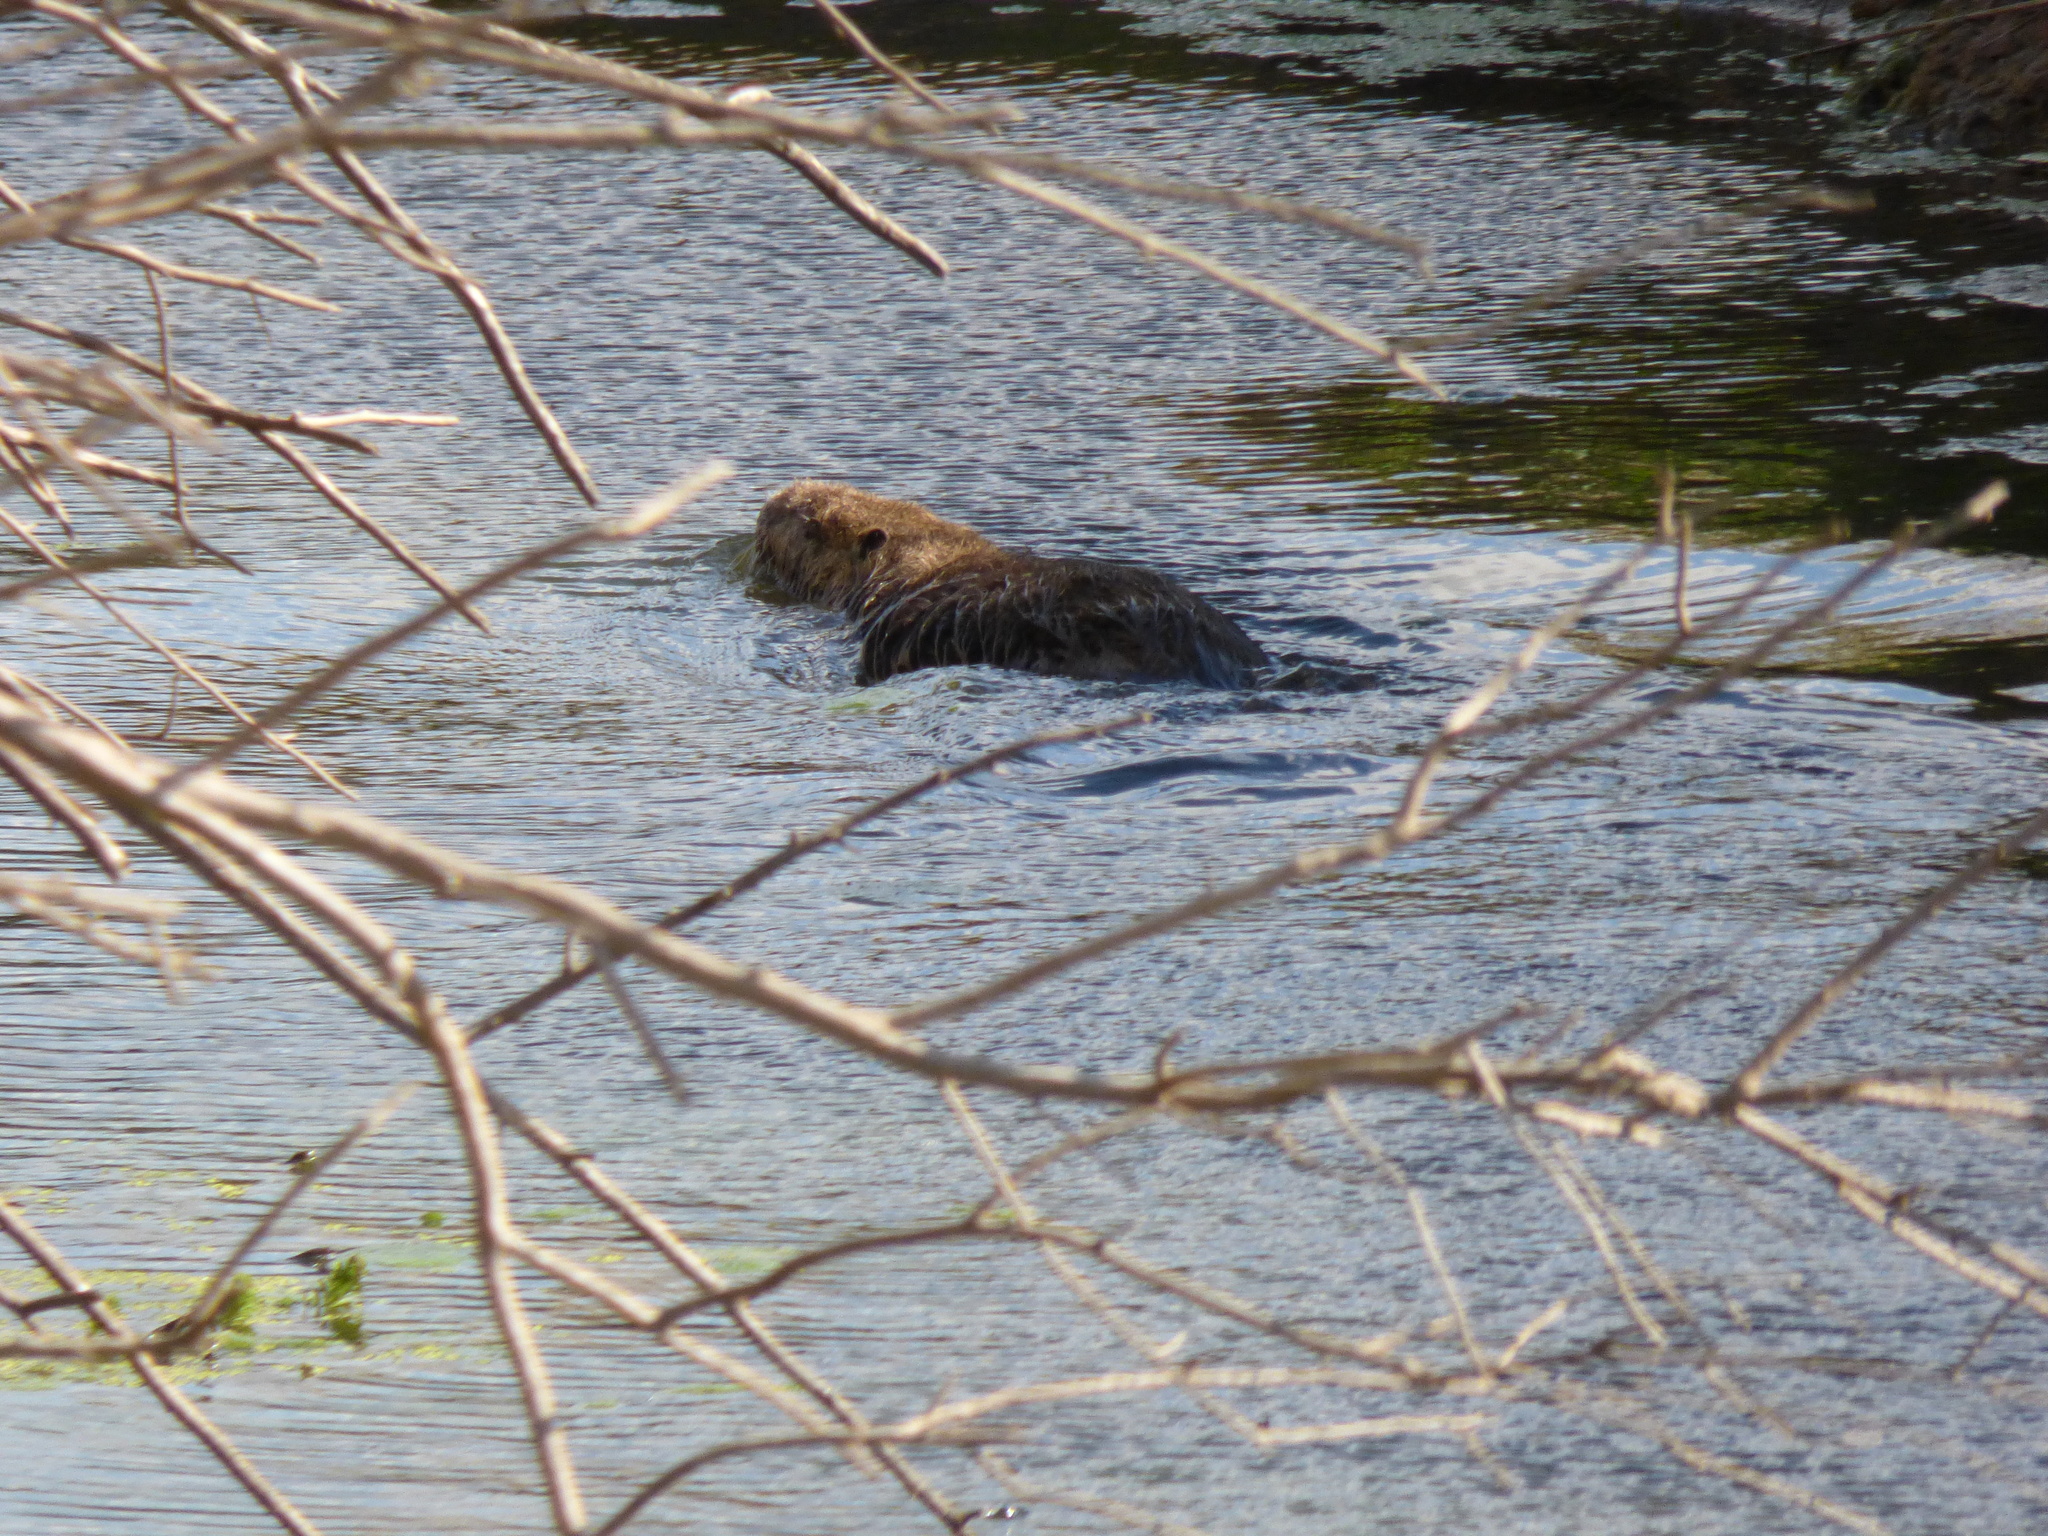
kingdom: Animalia
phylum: Chordata
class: Mammalia
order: Rodentia
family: Myocastoridae
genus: Myocastor
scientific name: Myocastor coypus
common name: Coypu
